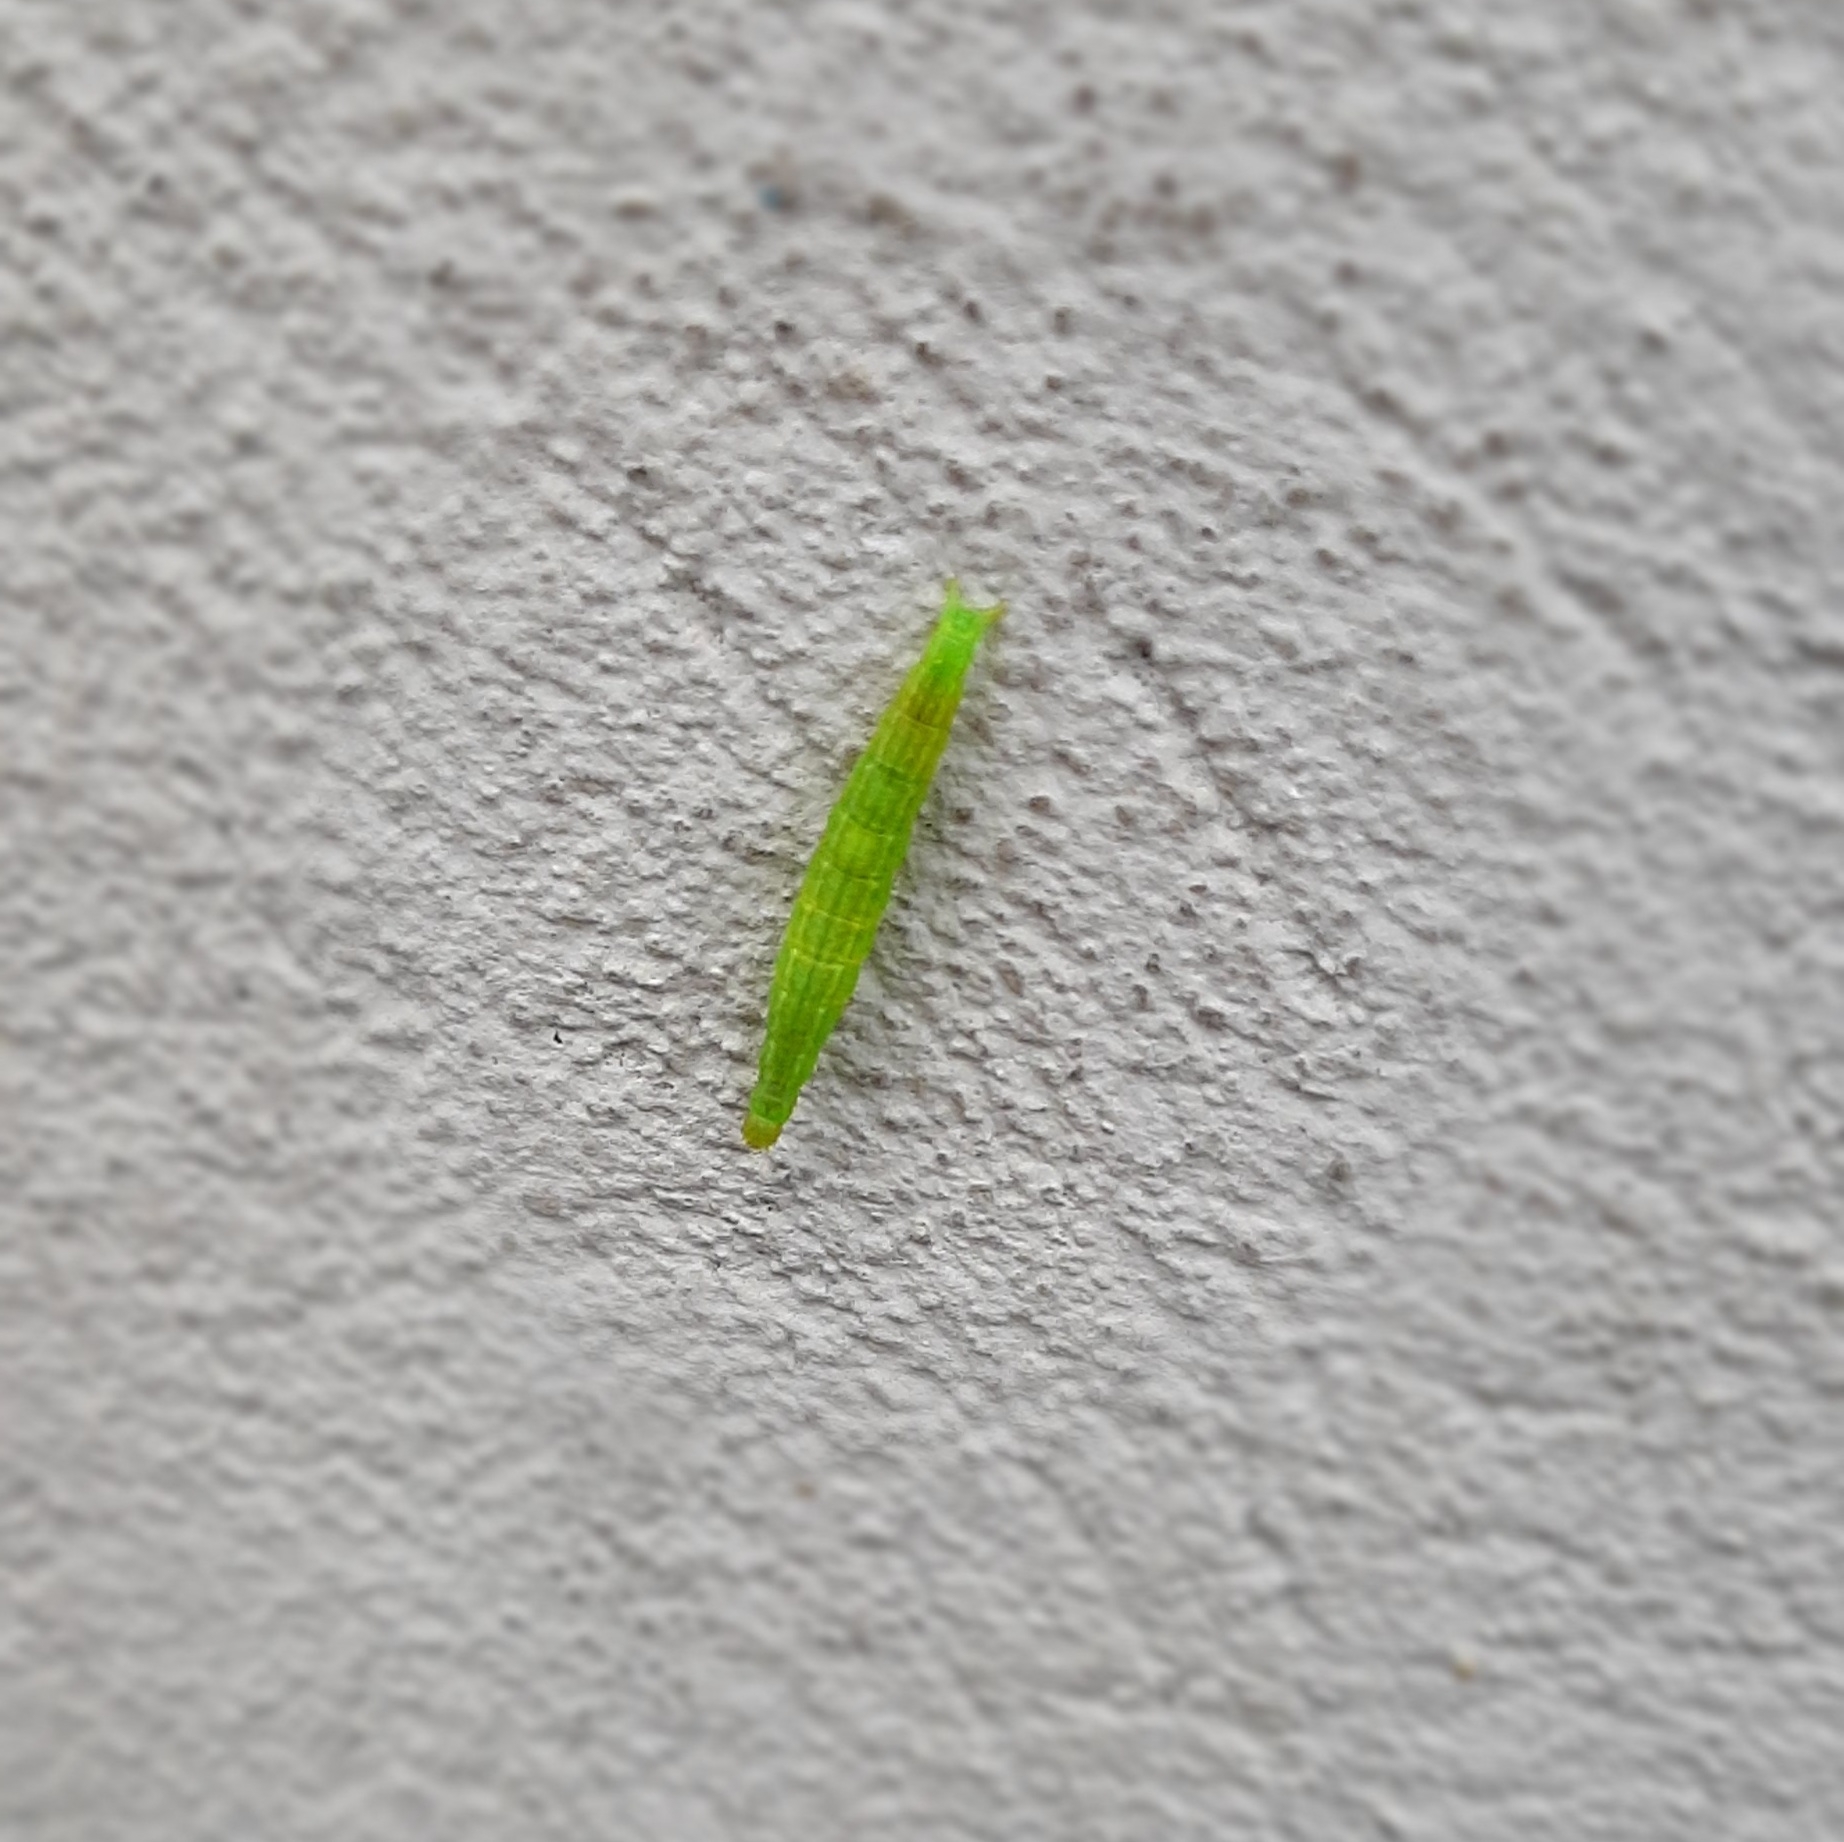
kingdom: Animalia
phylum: Arthropoda
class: Insecta
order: Lepidoptera
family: Plutellidae
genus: Ypsolophus
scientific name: Ypsolophus sequella
